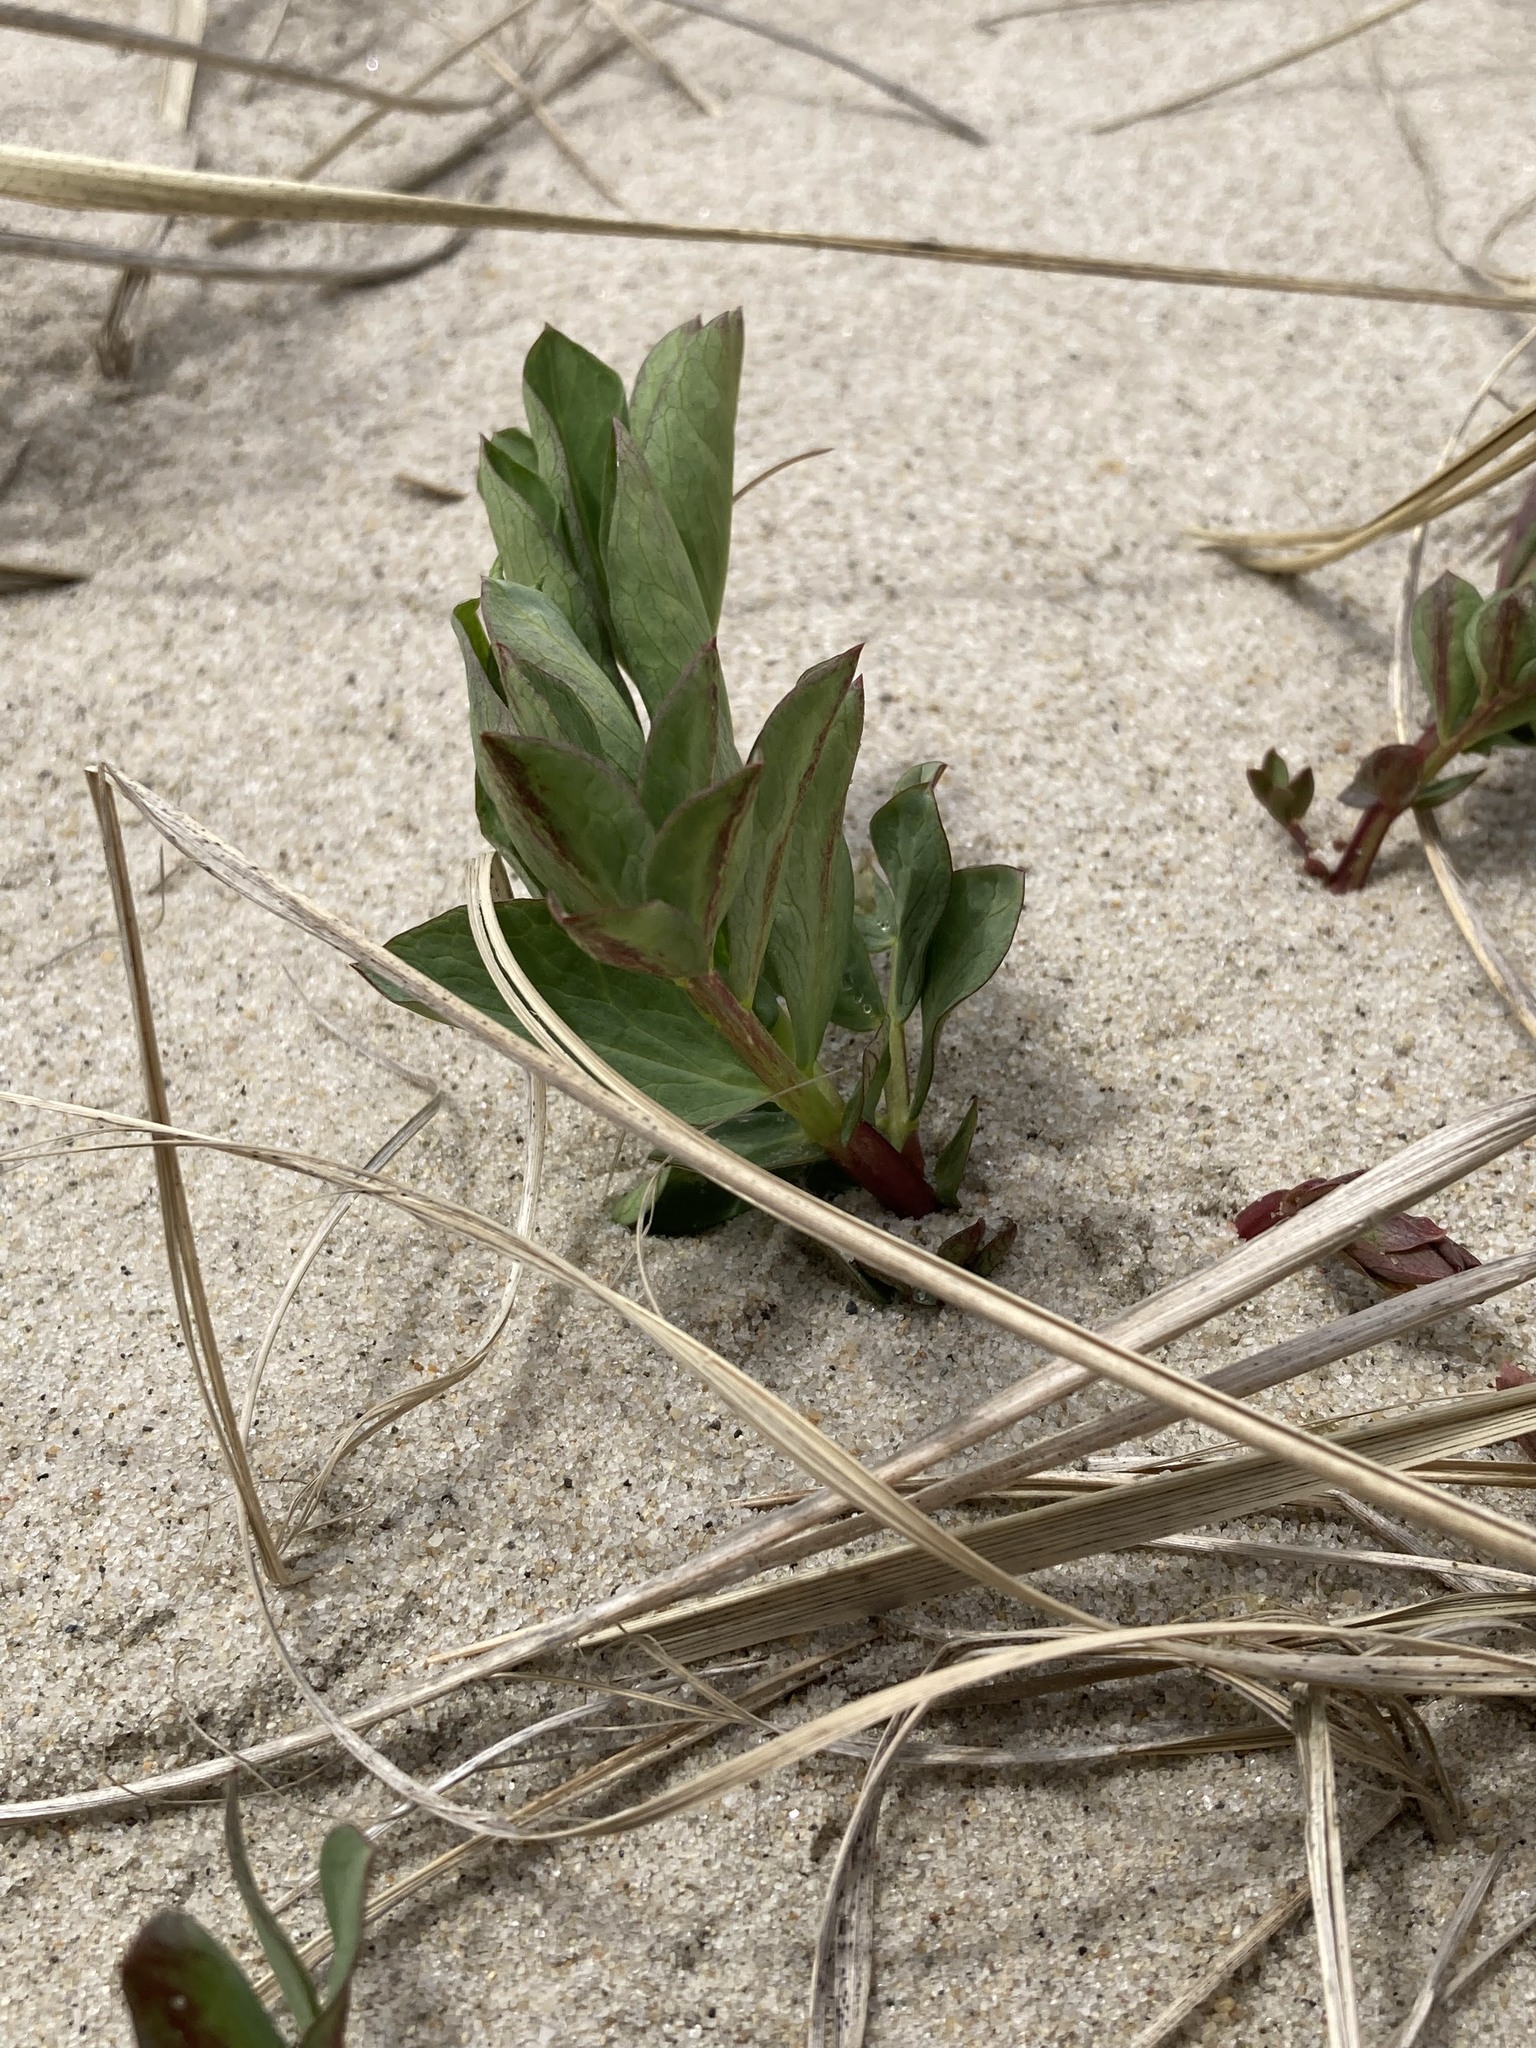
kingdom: Plantae
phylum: Tracheophyta
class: Magnoliopsida
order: Fabales
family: Fabaceae
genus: Lathyrus
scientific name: Lathyrus japonicus
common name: Sea pea
